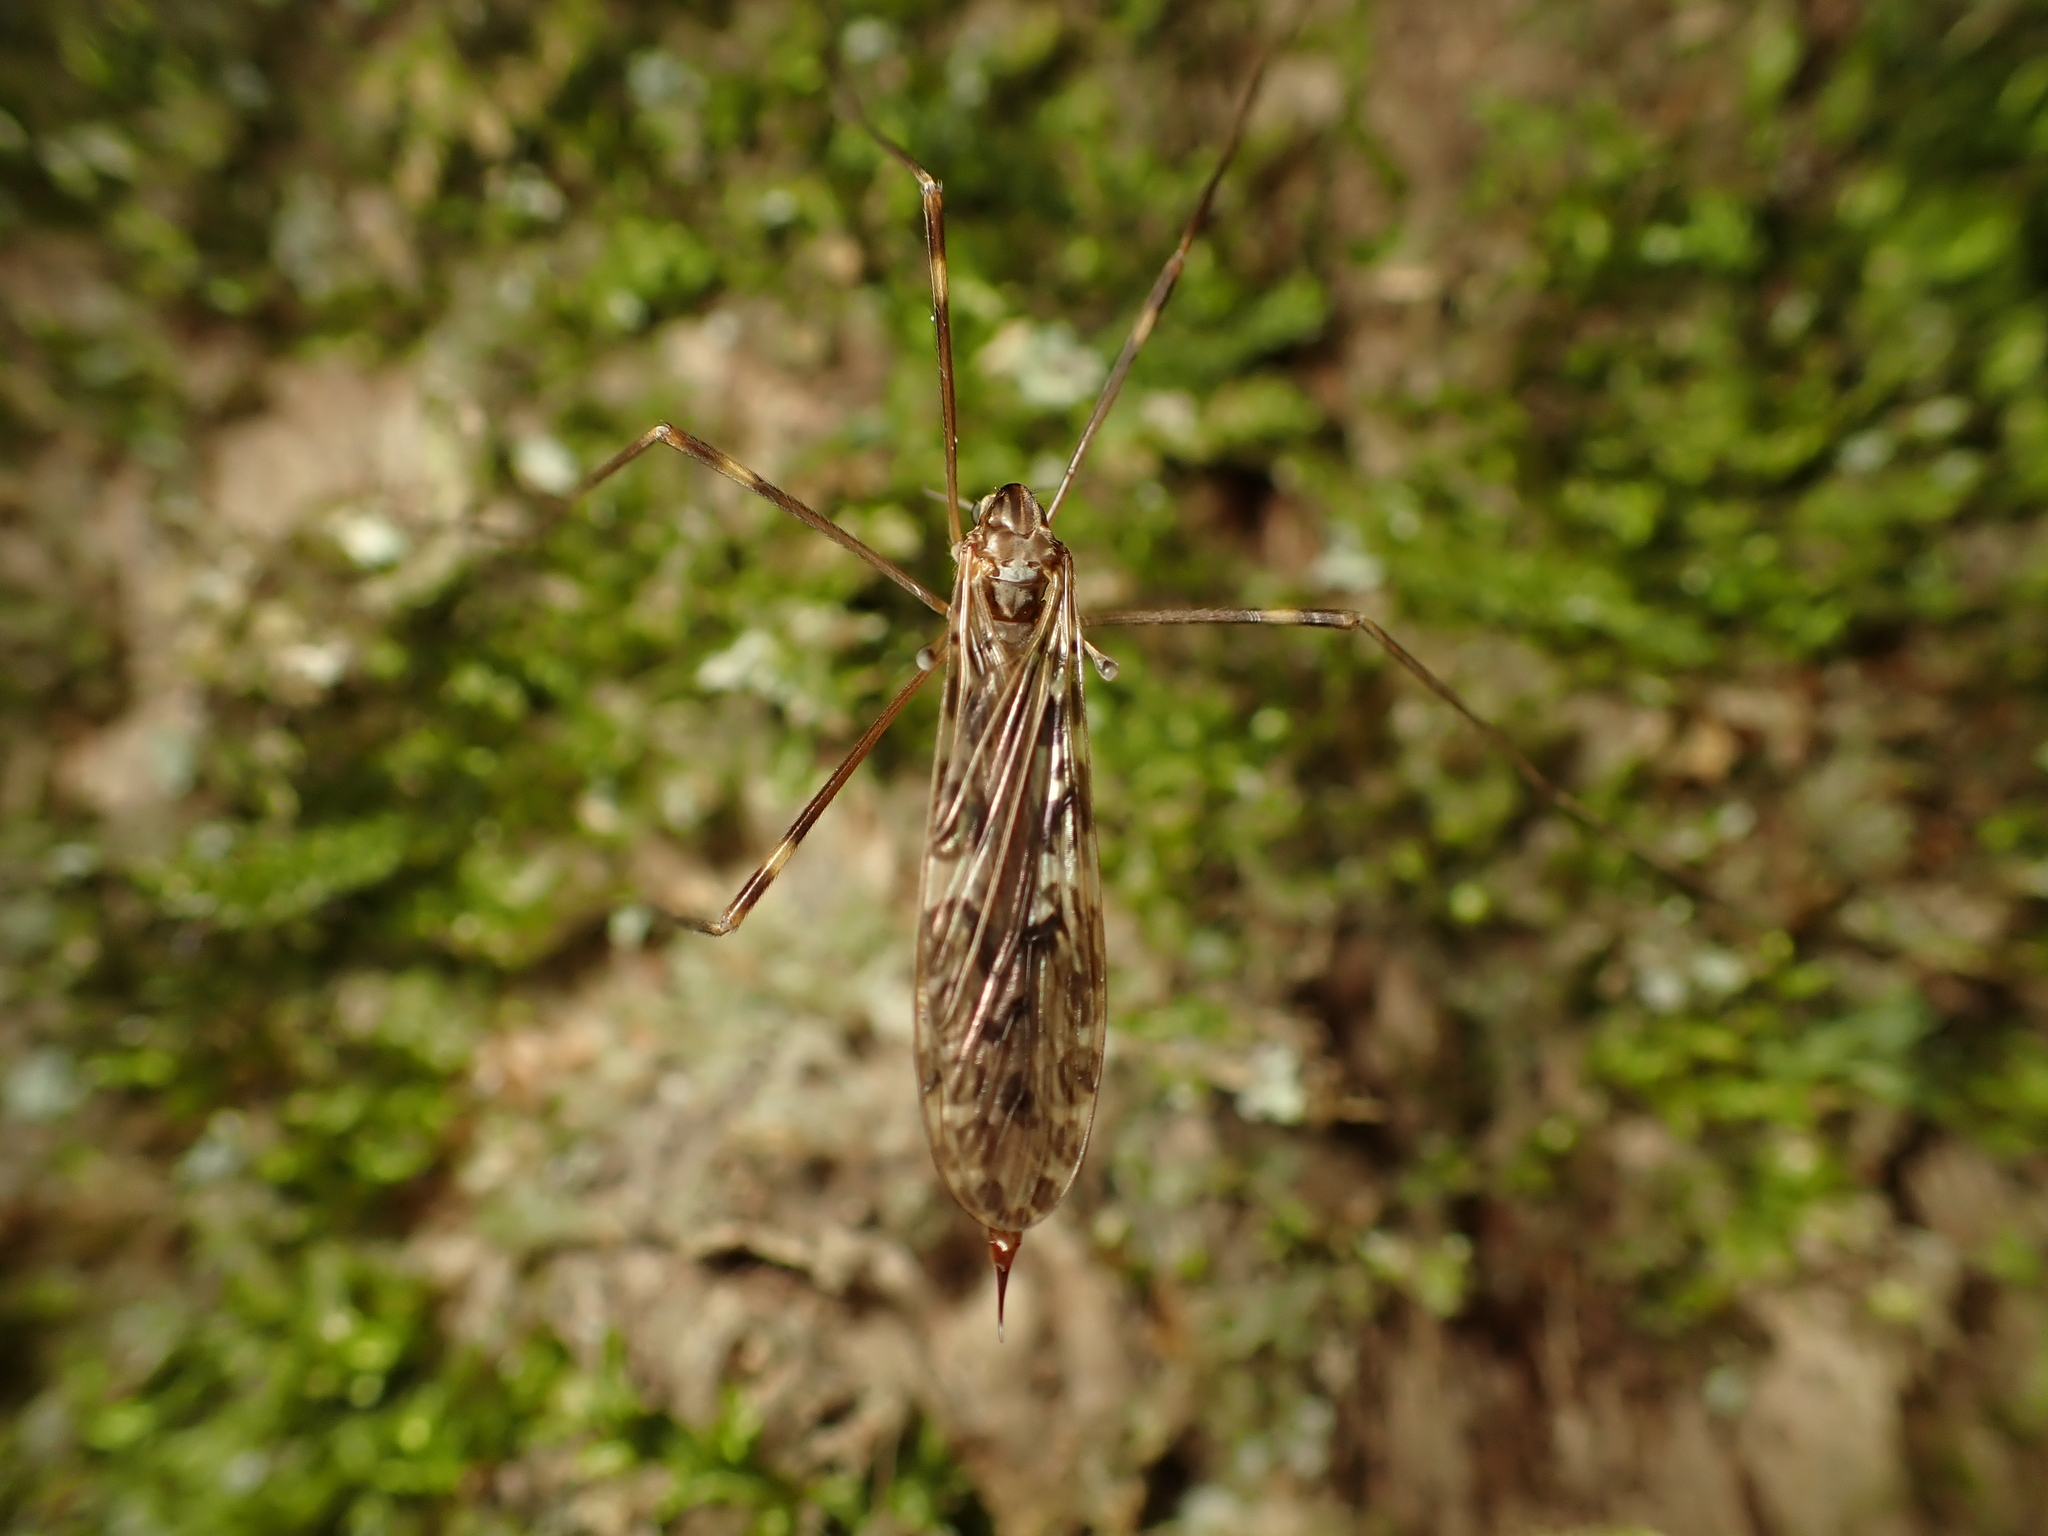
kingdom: Animalia
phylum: Arthropoda
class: Insecta
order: Diptera
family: Limoniidae
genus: Austrolimnophila
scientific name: Austrolimnophila oculata
